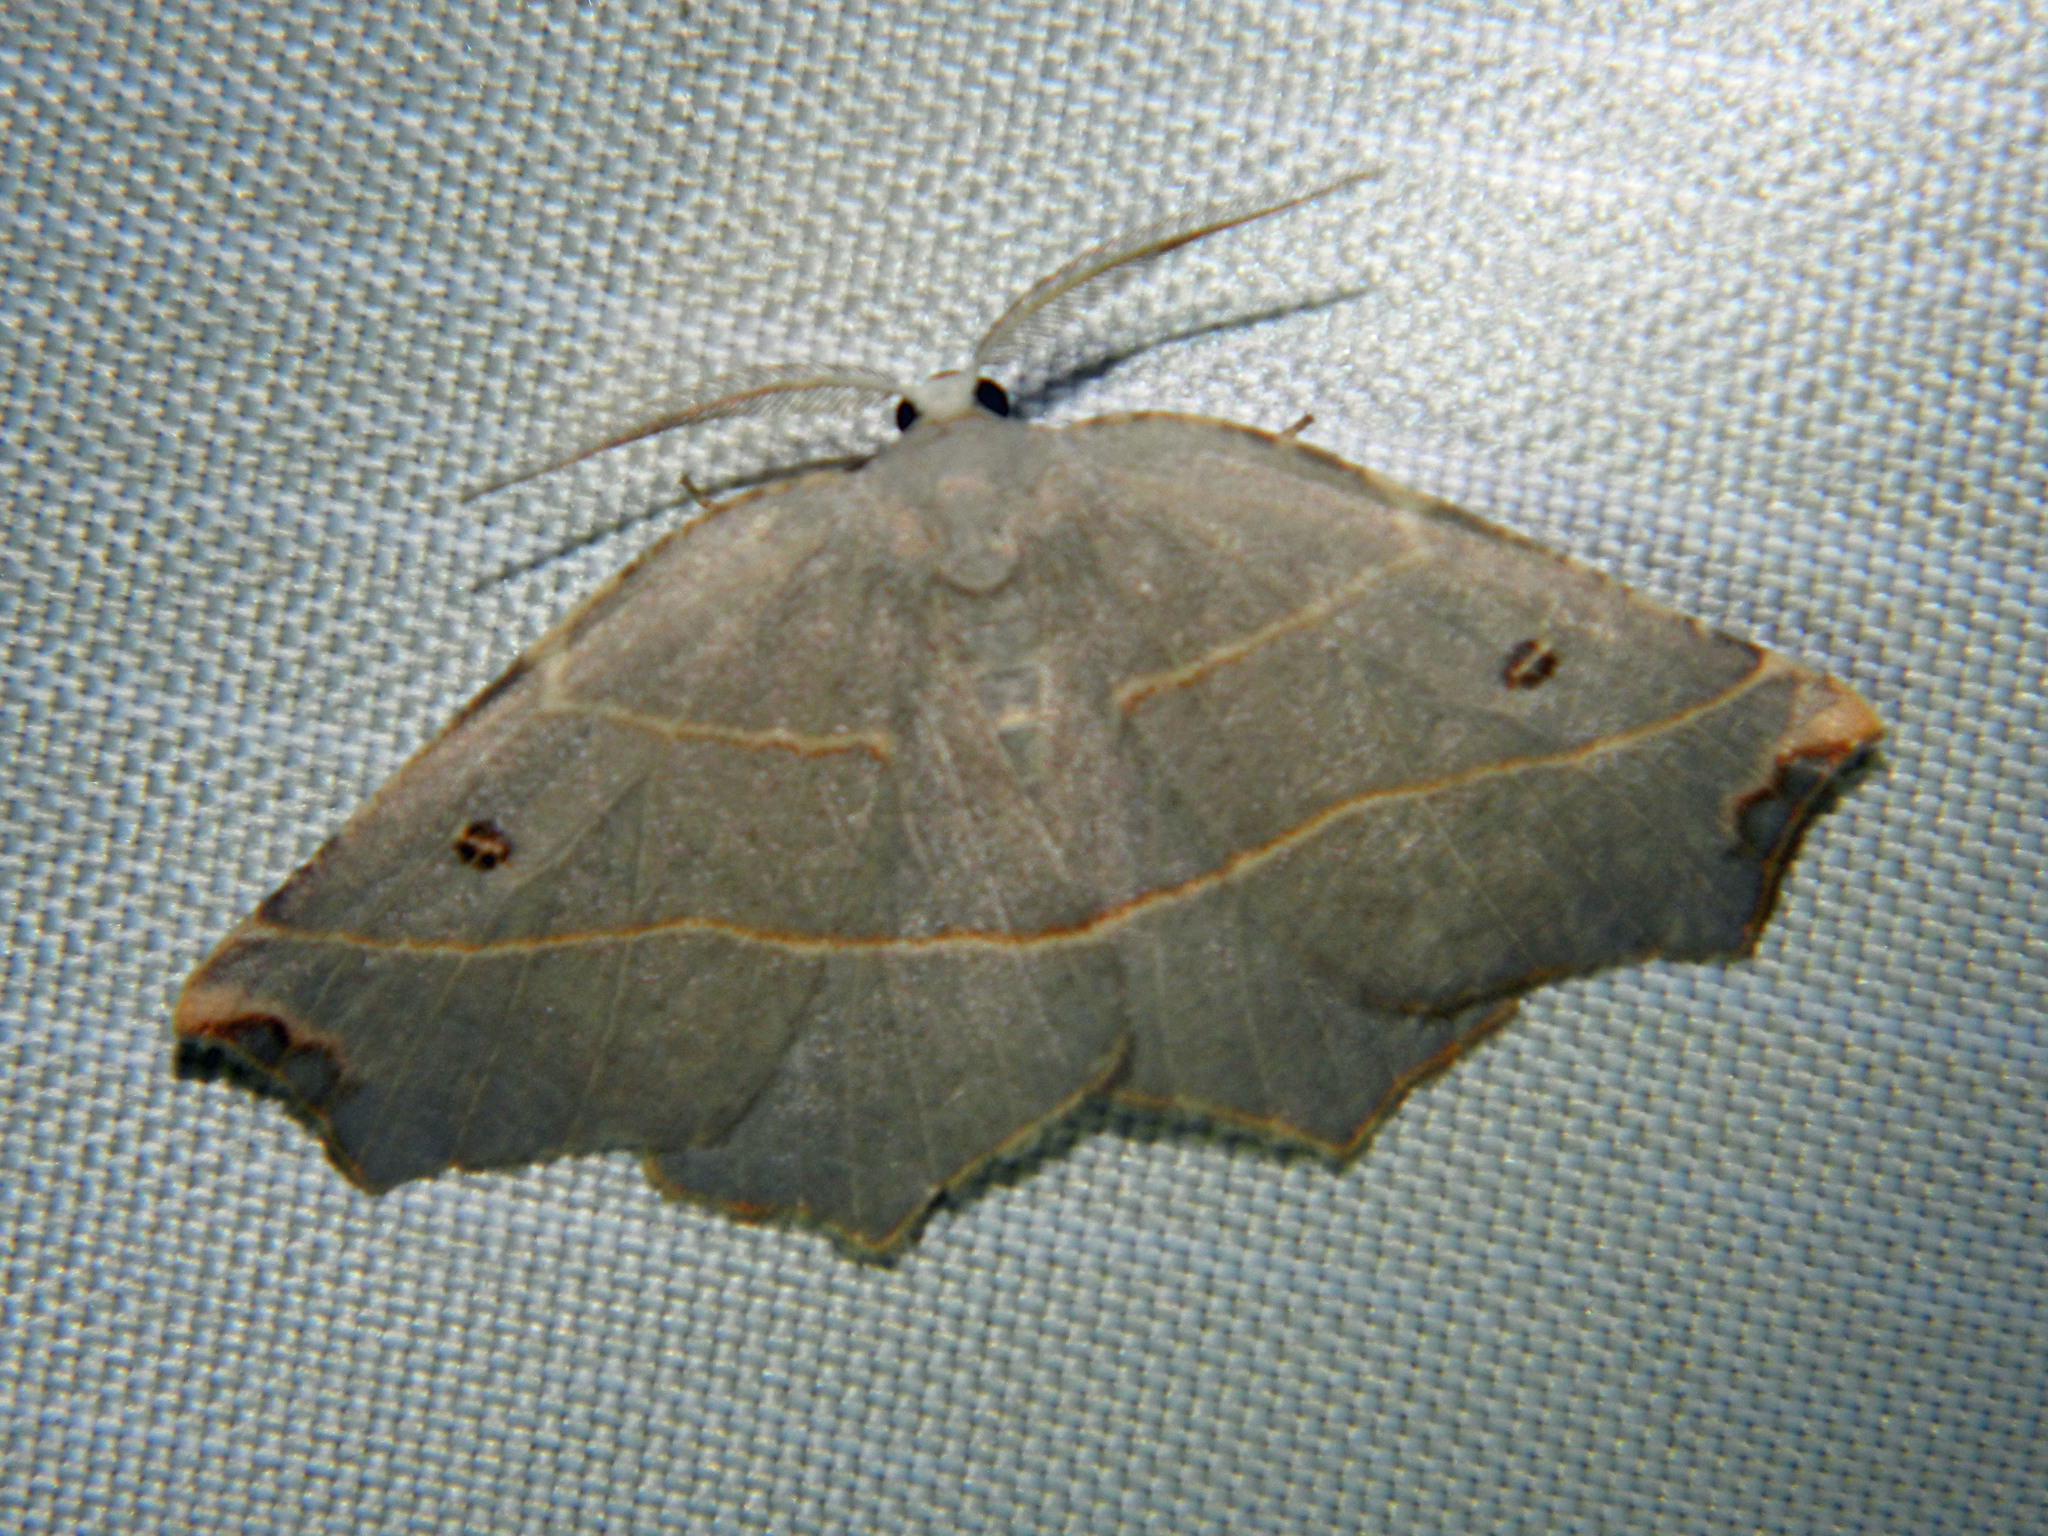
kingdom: Animalia
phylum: Arthropoda
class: Insecta
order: Lepidoptera
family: Geometridae
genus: Metanema
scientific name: Metanema inatomaria
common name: Pale metanema
